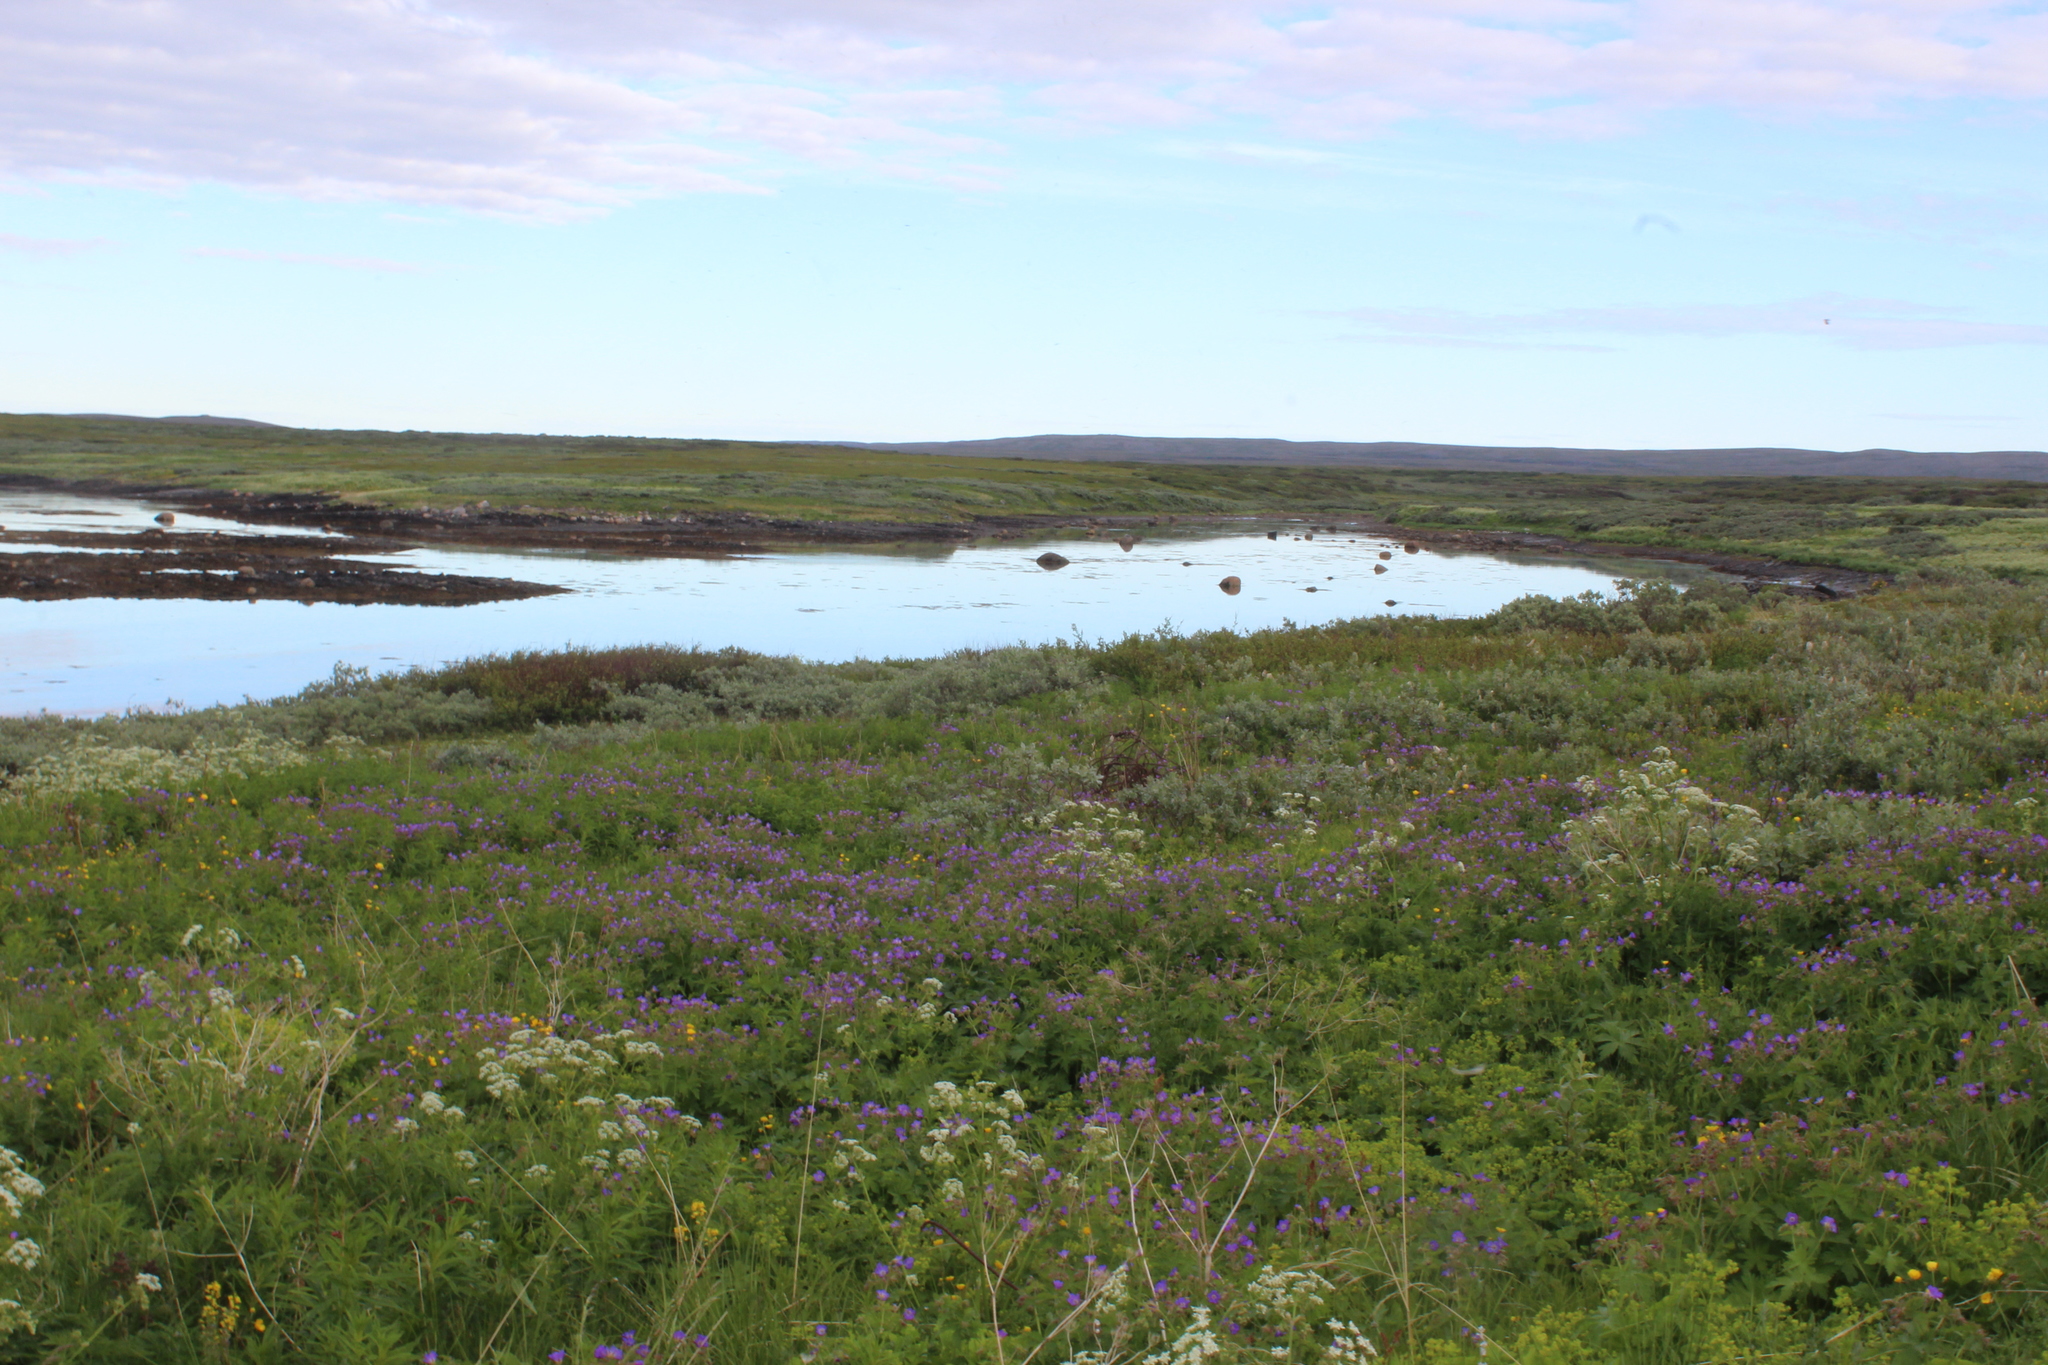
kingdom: Plantae
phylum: Tracheophyta
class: Magnoliopsida
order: Geraniales
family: Geraniaceae
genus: Geranium
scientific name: Geranium sylvaticum
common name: Wood crane's-bill
